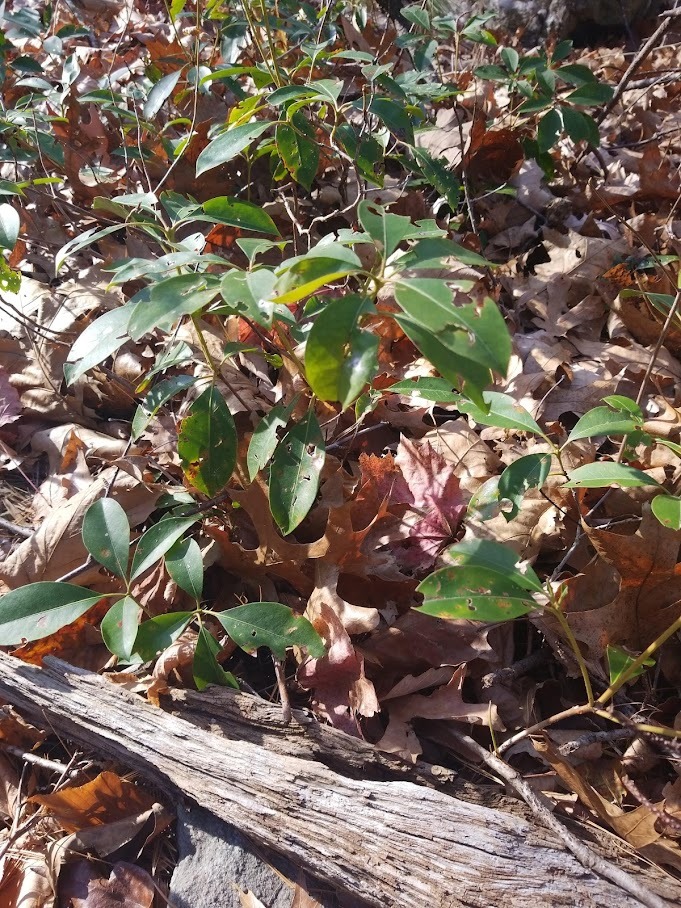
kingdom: Plantae
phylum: Tracheophyta
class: Magnoliopsida
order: Ericales
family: Ericaceae
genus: Kalmia
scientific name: Kalmia latifolia
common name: Mountain-laurel
